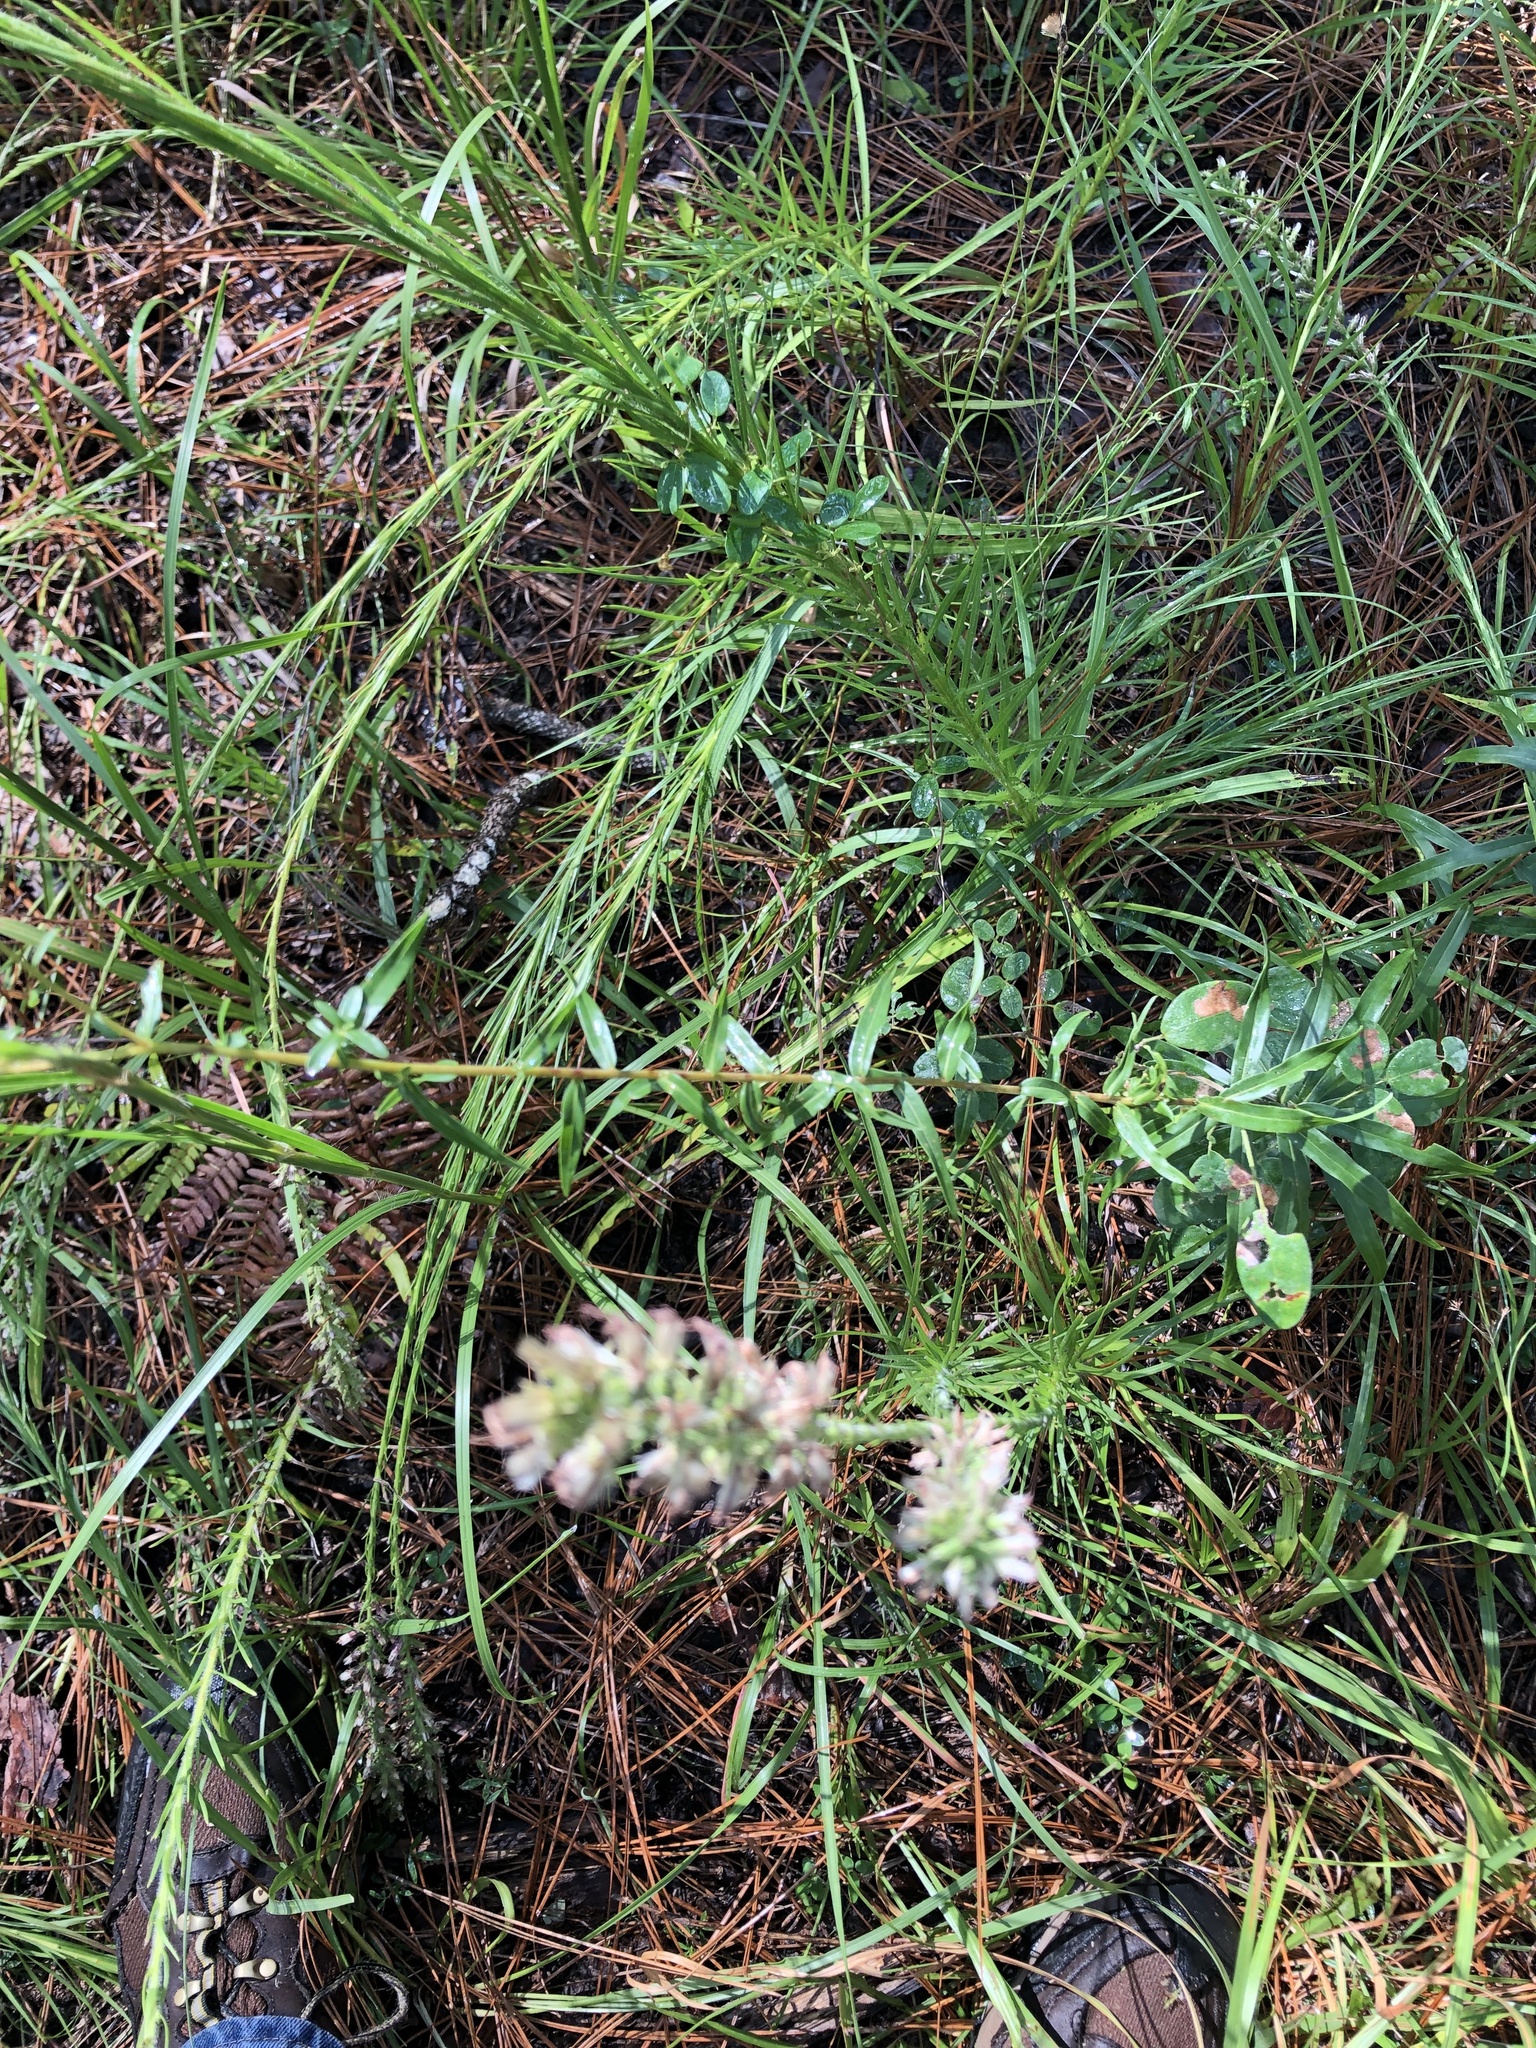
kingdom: Plantae
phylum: Tracheophyta
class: Magnoliopsida
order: Asterales
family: Asteraceae
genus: Solidago
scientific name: Solidago odora
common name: Anise-scented goldenrod
